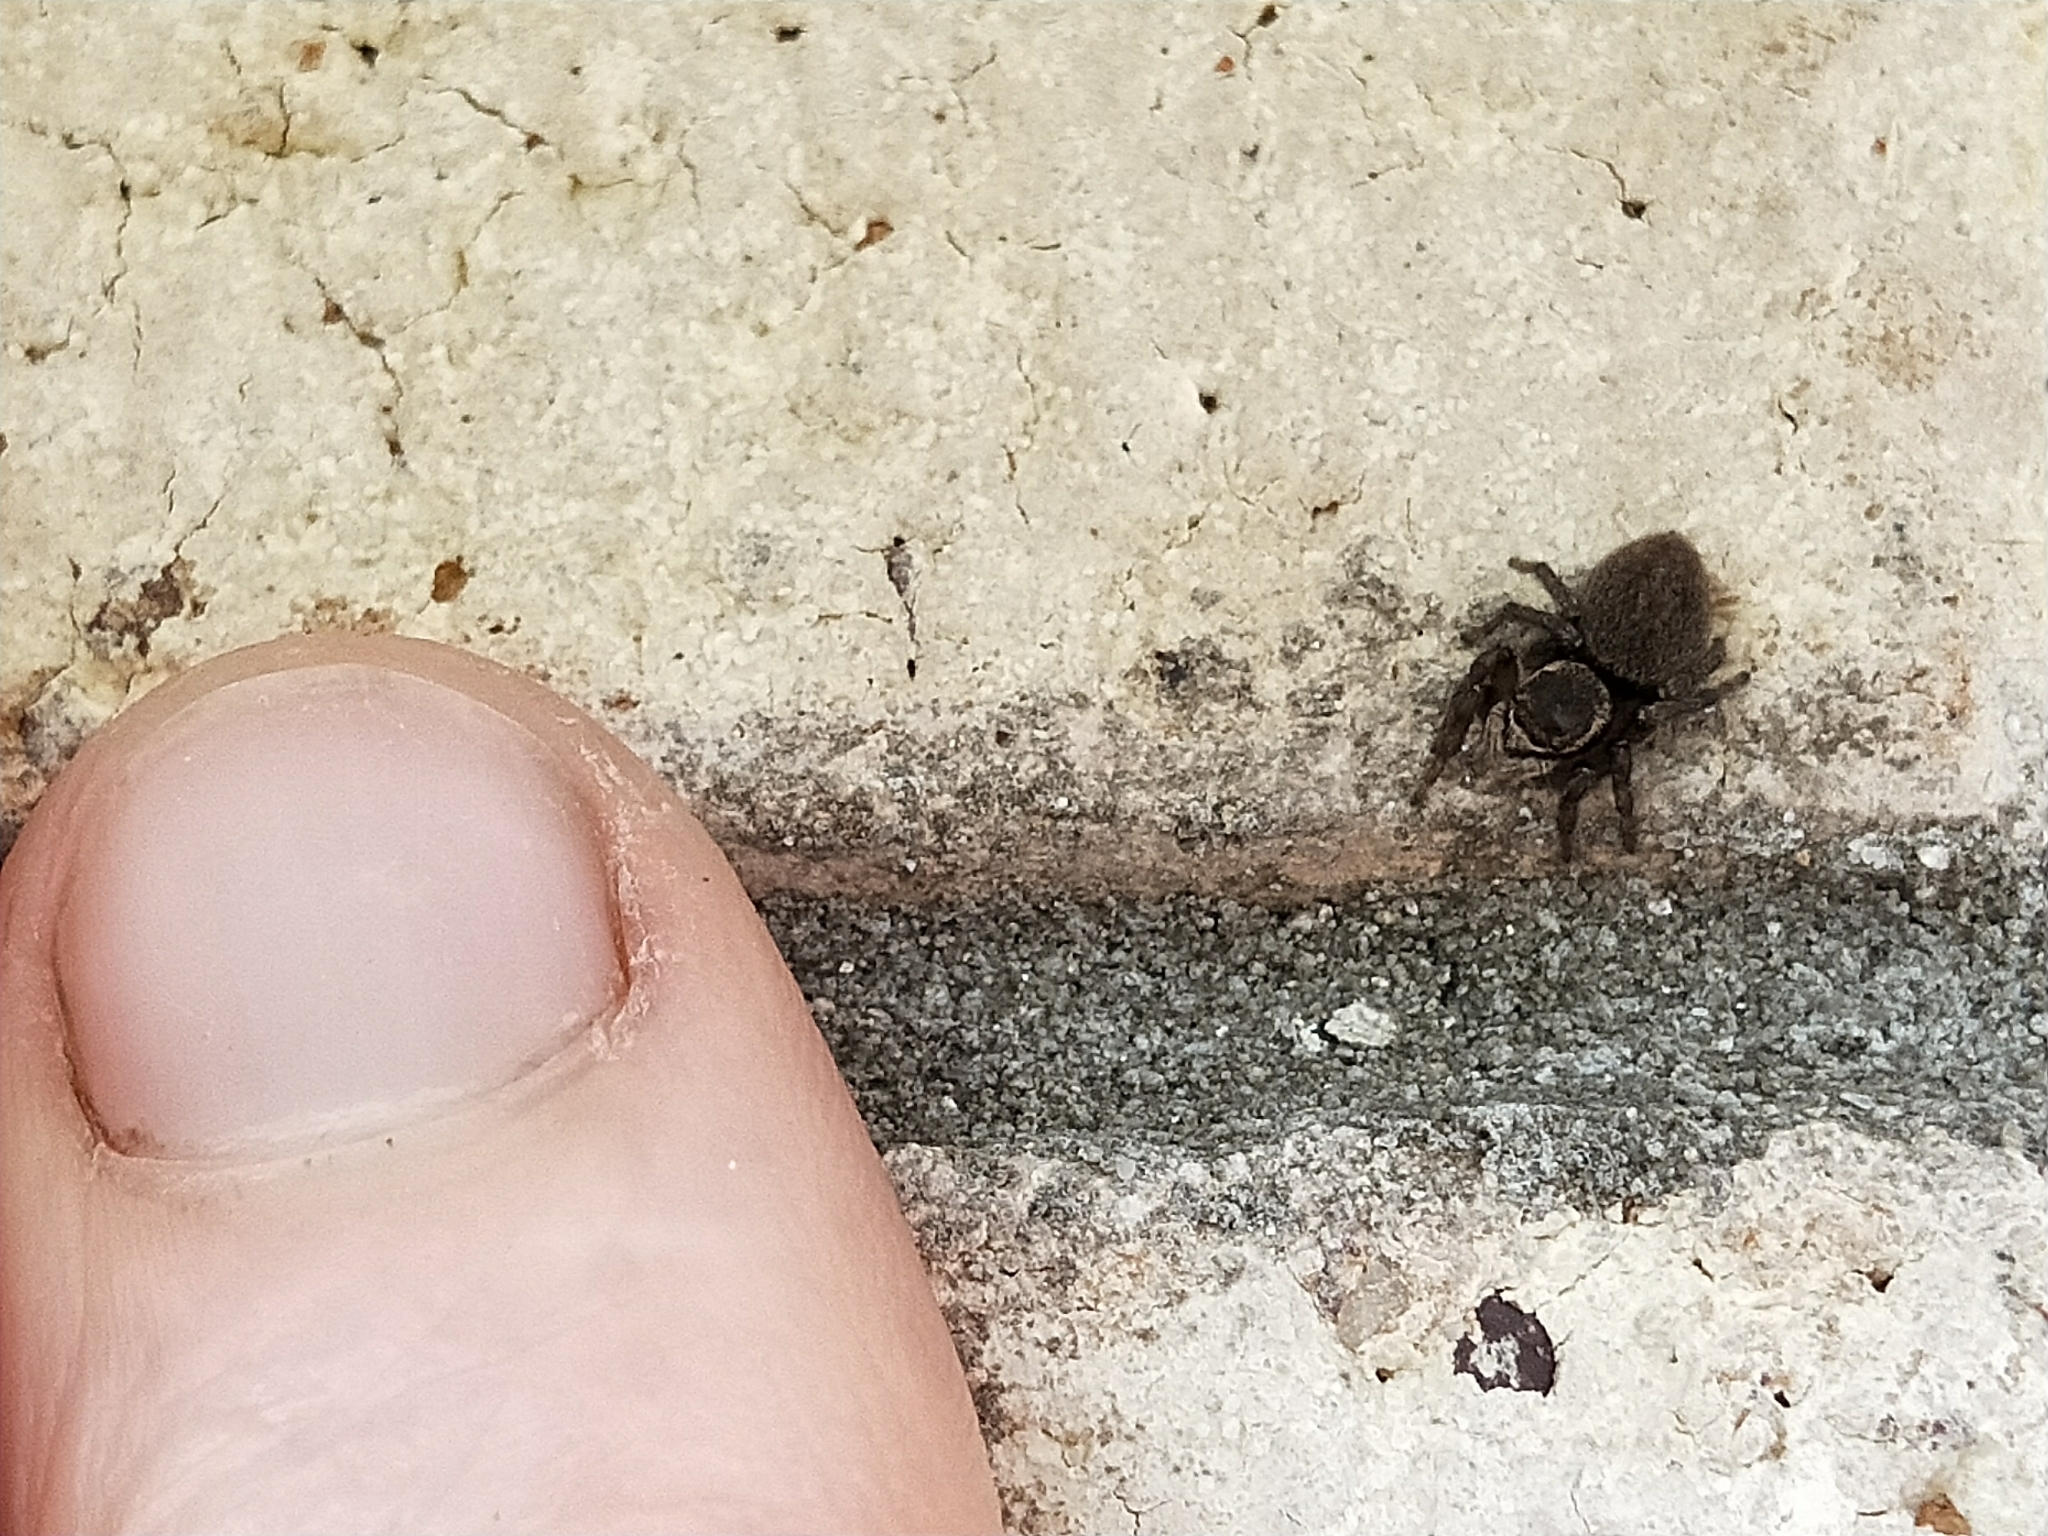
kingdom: Animalia
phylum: Arthropoda
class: Arachnida
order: Araneae
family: Salticidae
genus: Maratus
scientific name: Maratus griseus
